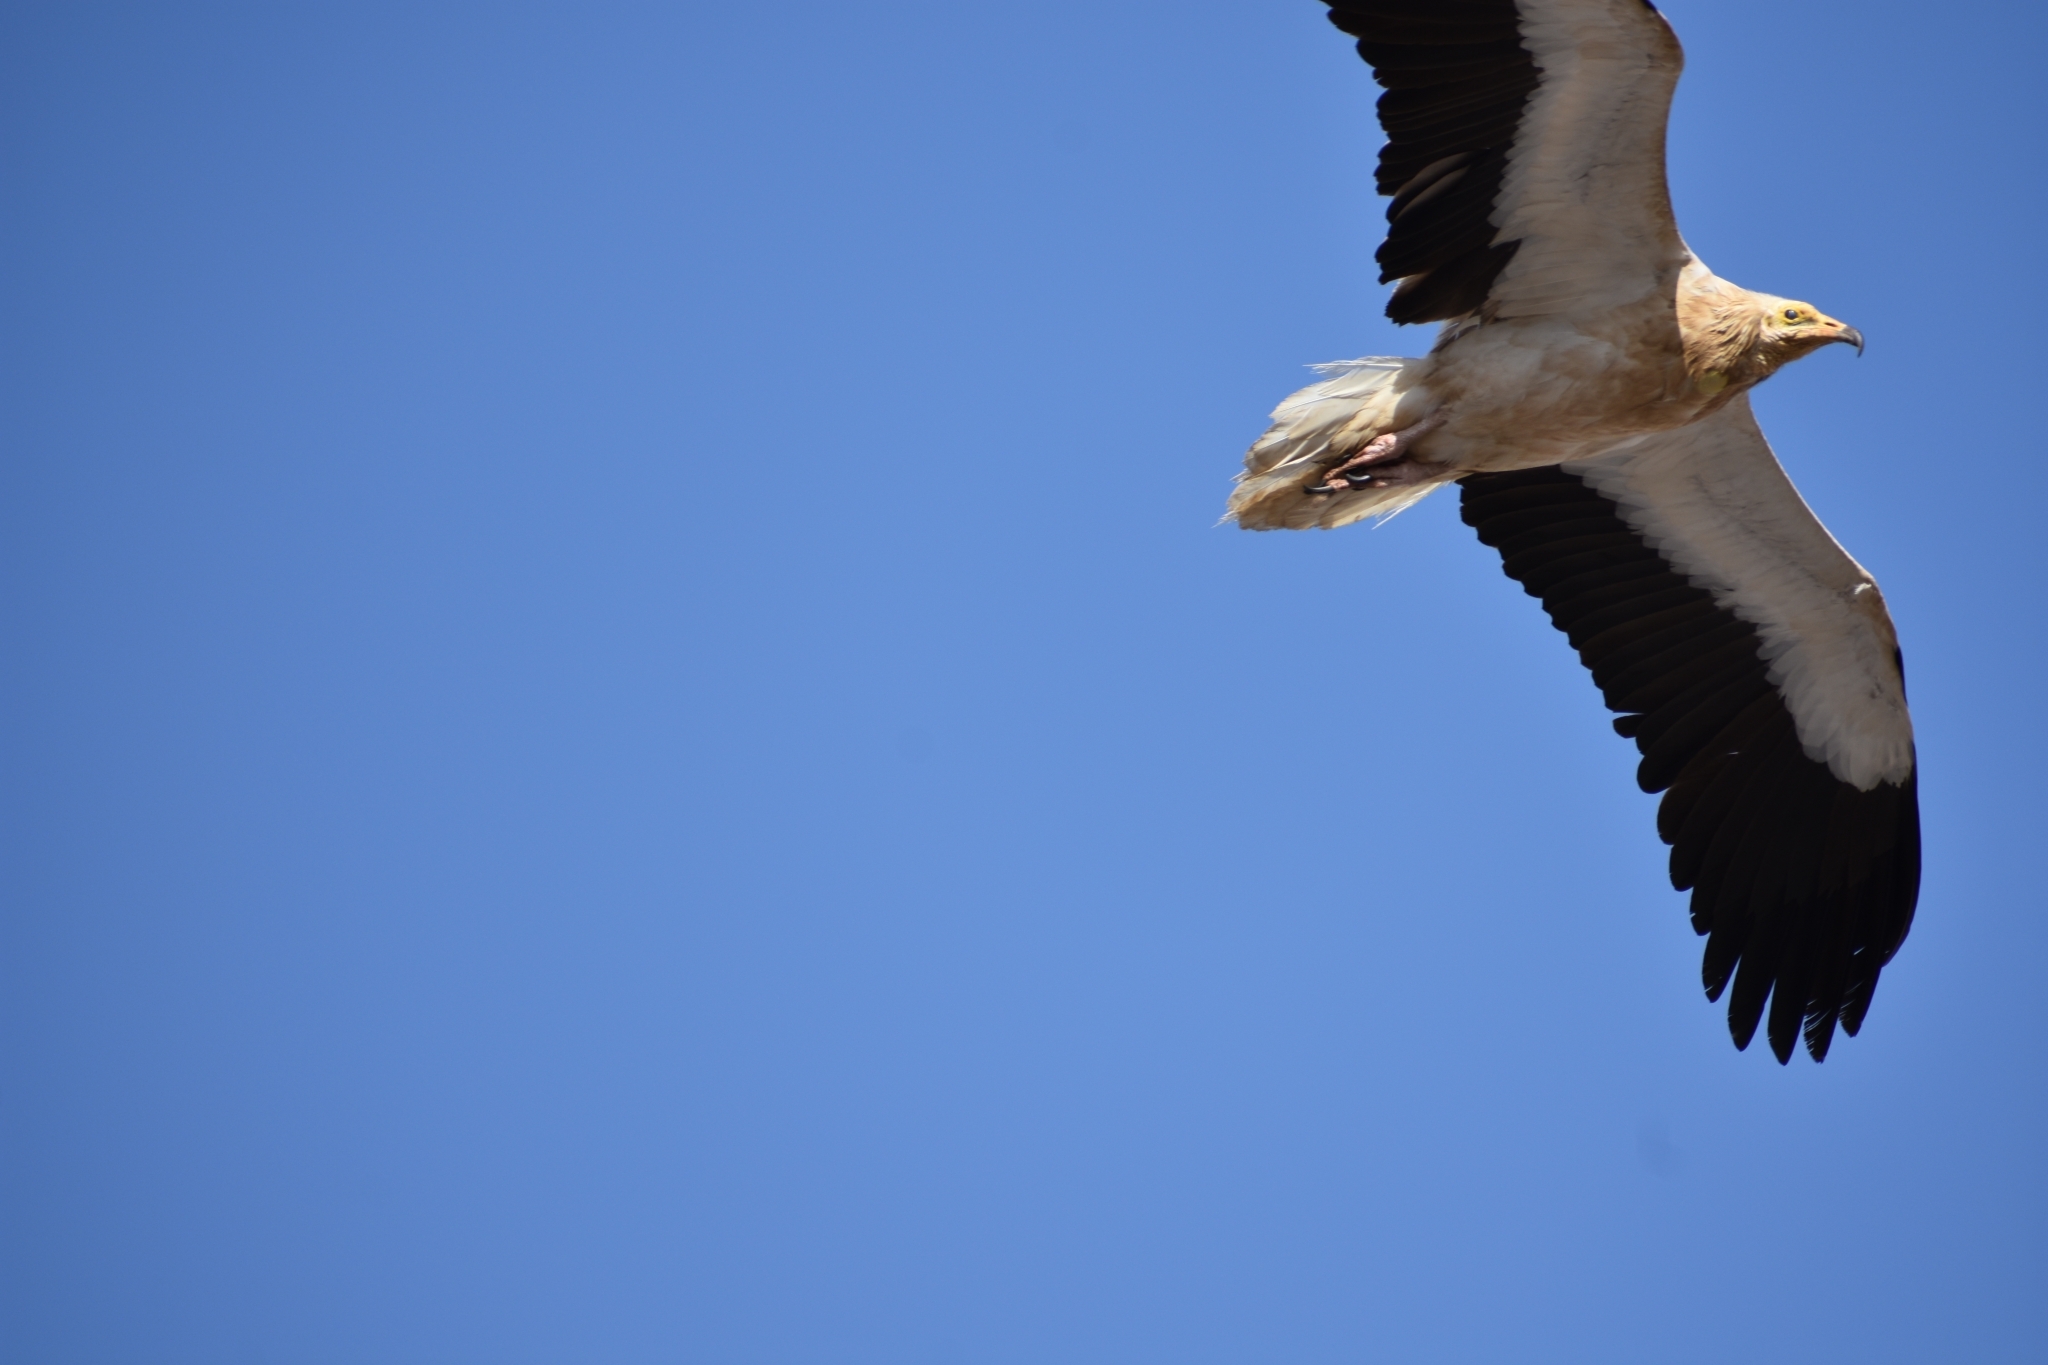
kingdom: Animalia
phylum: Chordata
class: Aves
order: Accipitriformes
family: Accipitridae
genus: Neophron
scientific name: Neophron percnopterus
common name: Egyptian vulture
